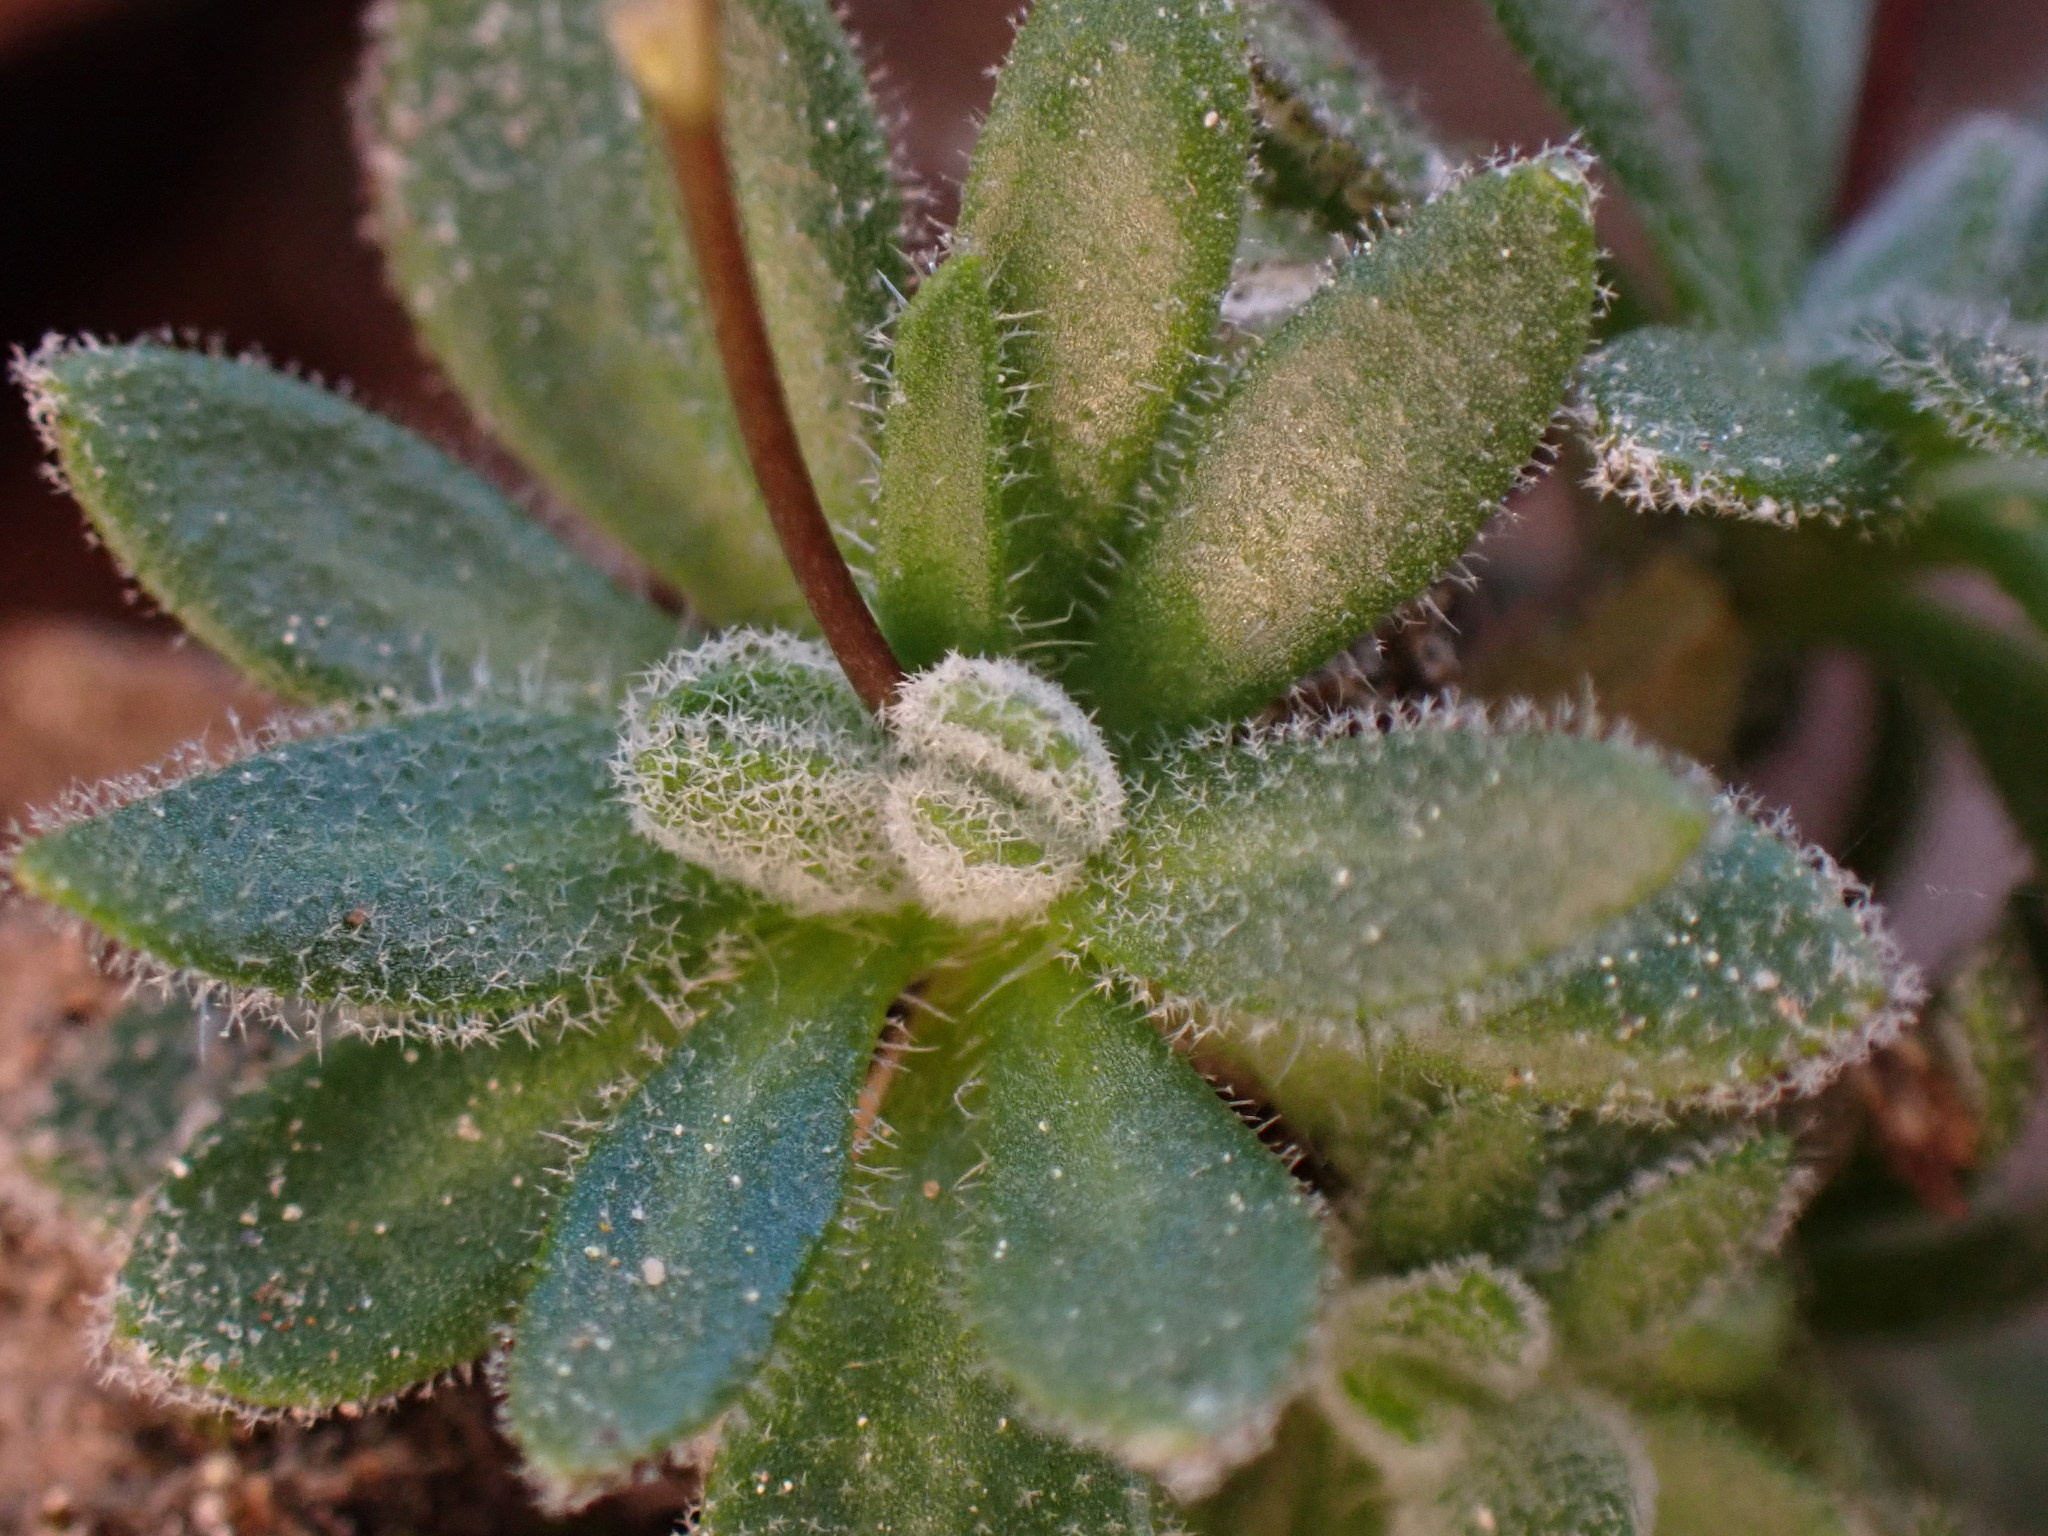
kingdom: Plantae
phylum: Tracheophyta
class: Magnoliopsida
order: Brassicales
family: Brassicaceae
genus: Draba
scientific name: Draba lonchocarpa
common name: Lance-fruit draba
